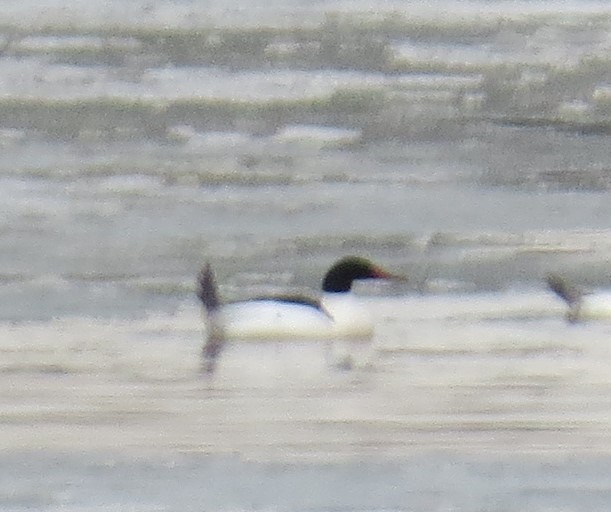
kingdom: Animalia
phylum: Chordata
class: Aves
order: Anseriformes
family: Anatidae
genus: Mergus
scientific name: Mergus merganser
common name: Common merganser
